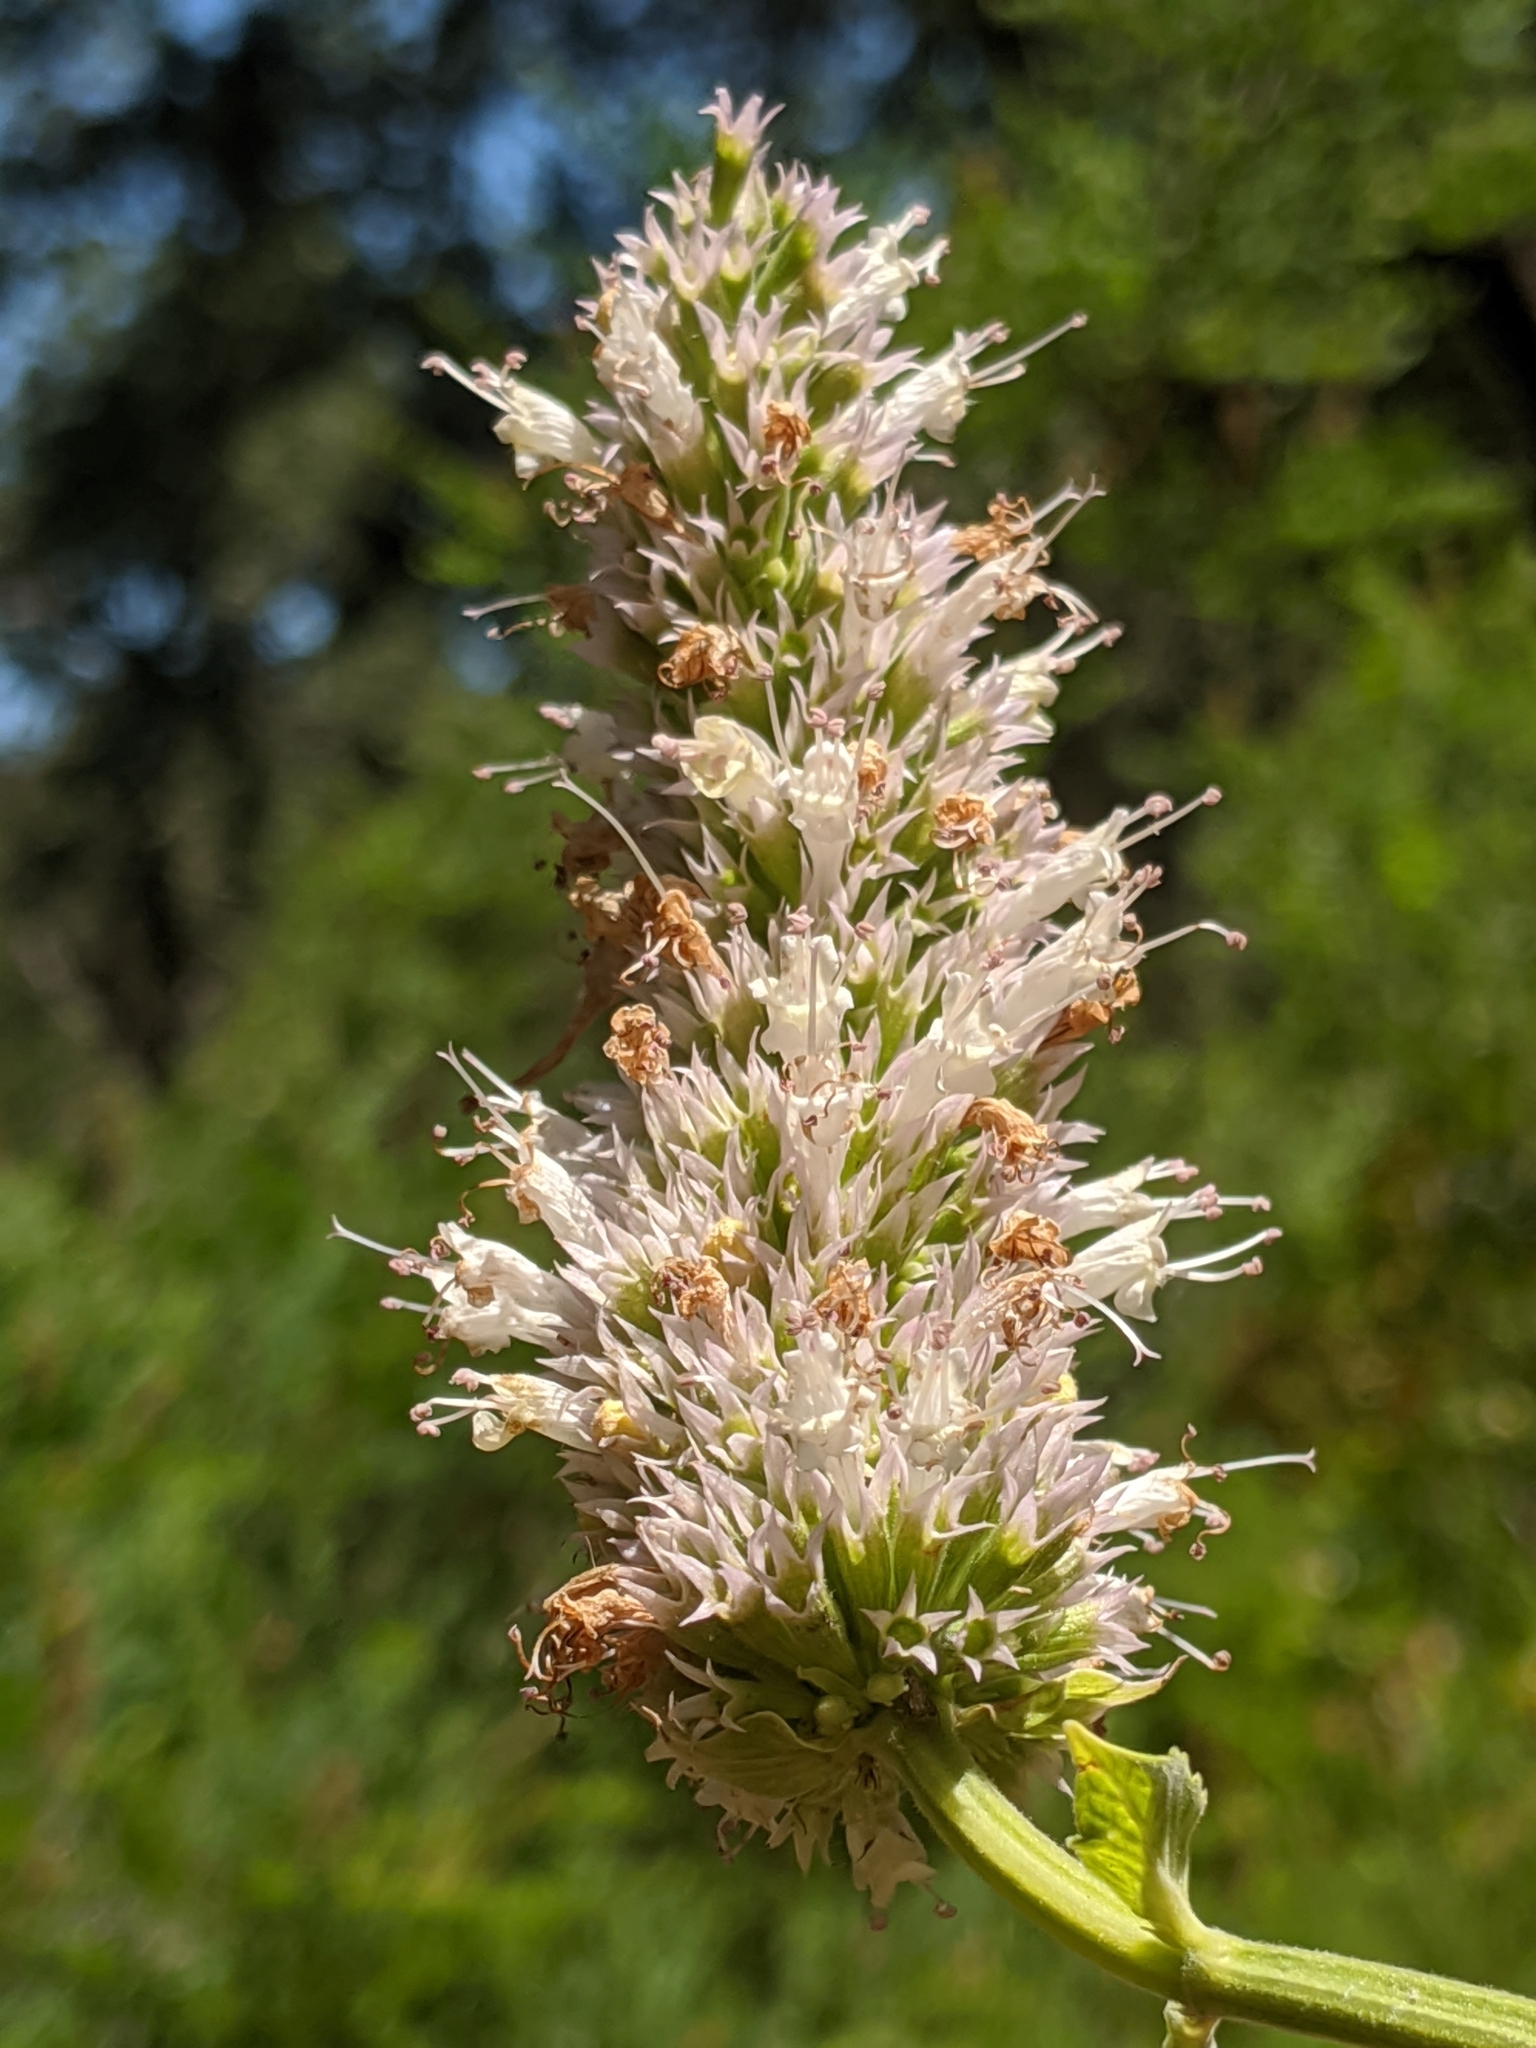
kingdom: Plantae
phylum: Tracheophyta
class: Magnoliopsida
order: Lamiales
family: Lamiaceae
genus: Agastache
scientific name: Agastache urticifolia
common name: Horsemint giant hyssop
